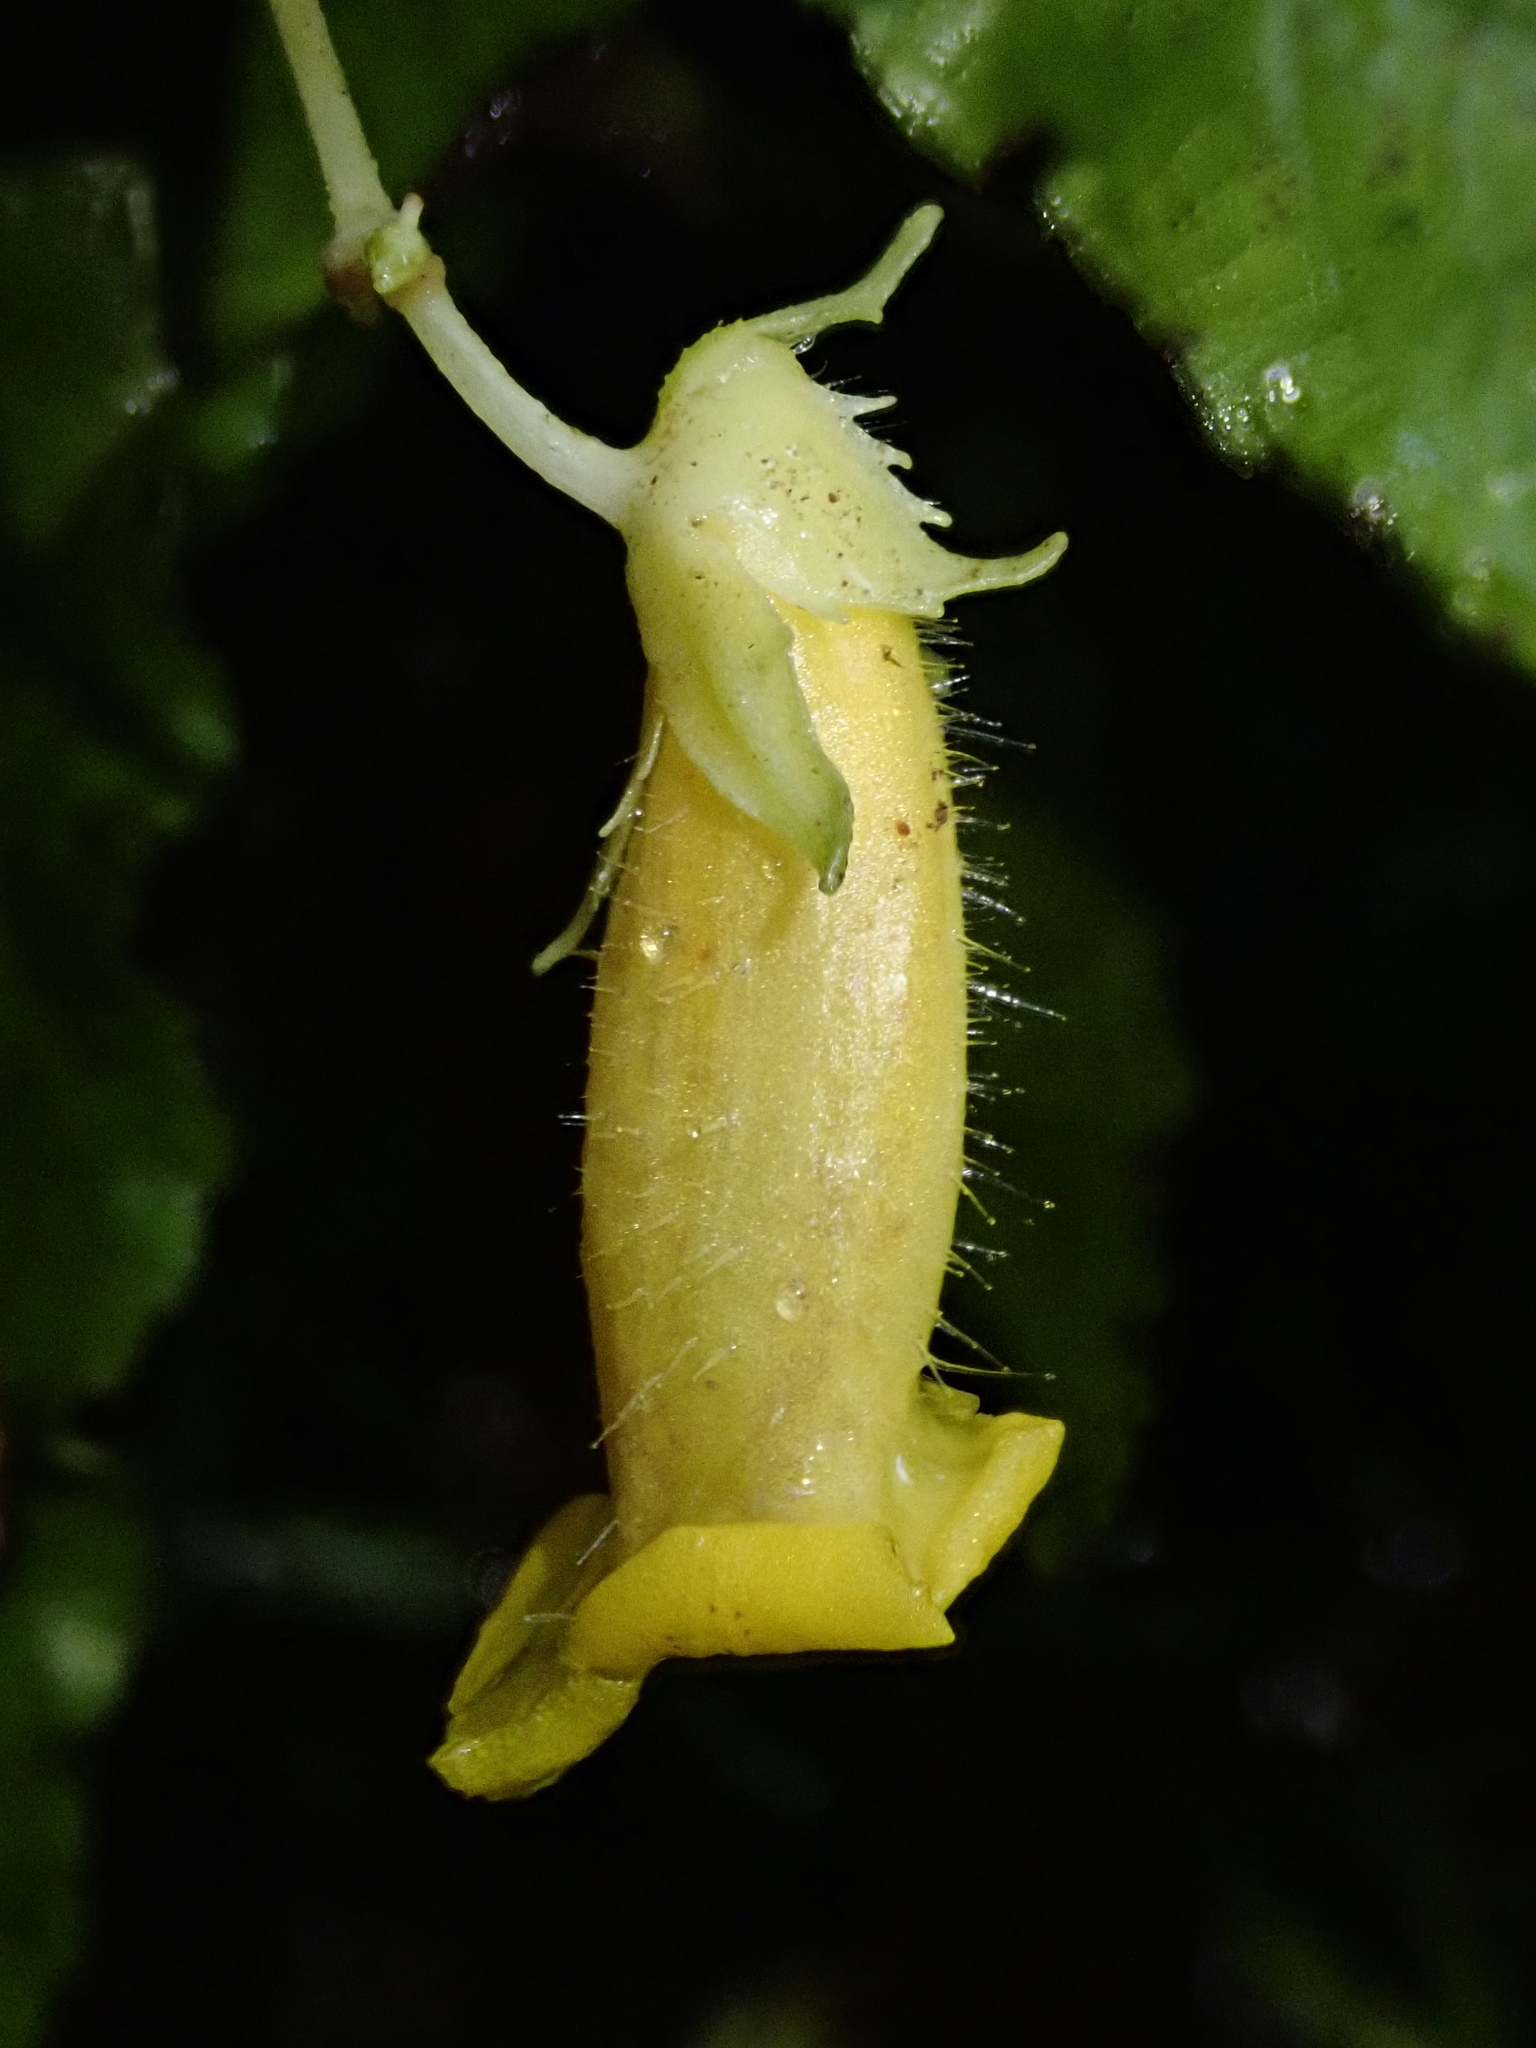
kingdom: Plantae
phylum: Tracheophyta
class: Magnoliopsida
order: Lamiales
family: Gesneriaceae
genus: Gasteranthus
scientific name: Gasteranthus wendlandianus
